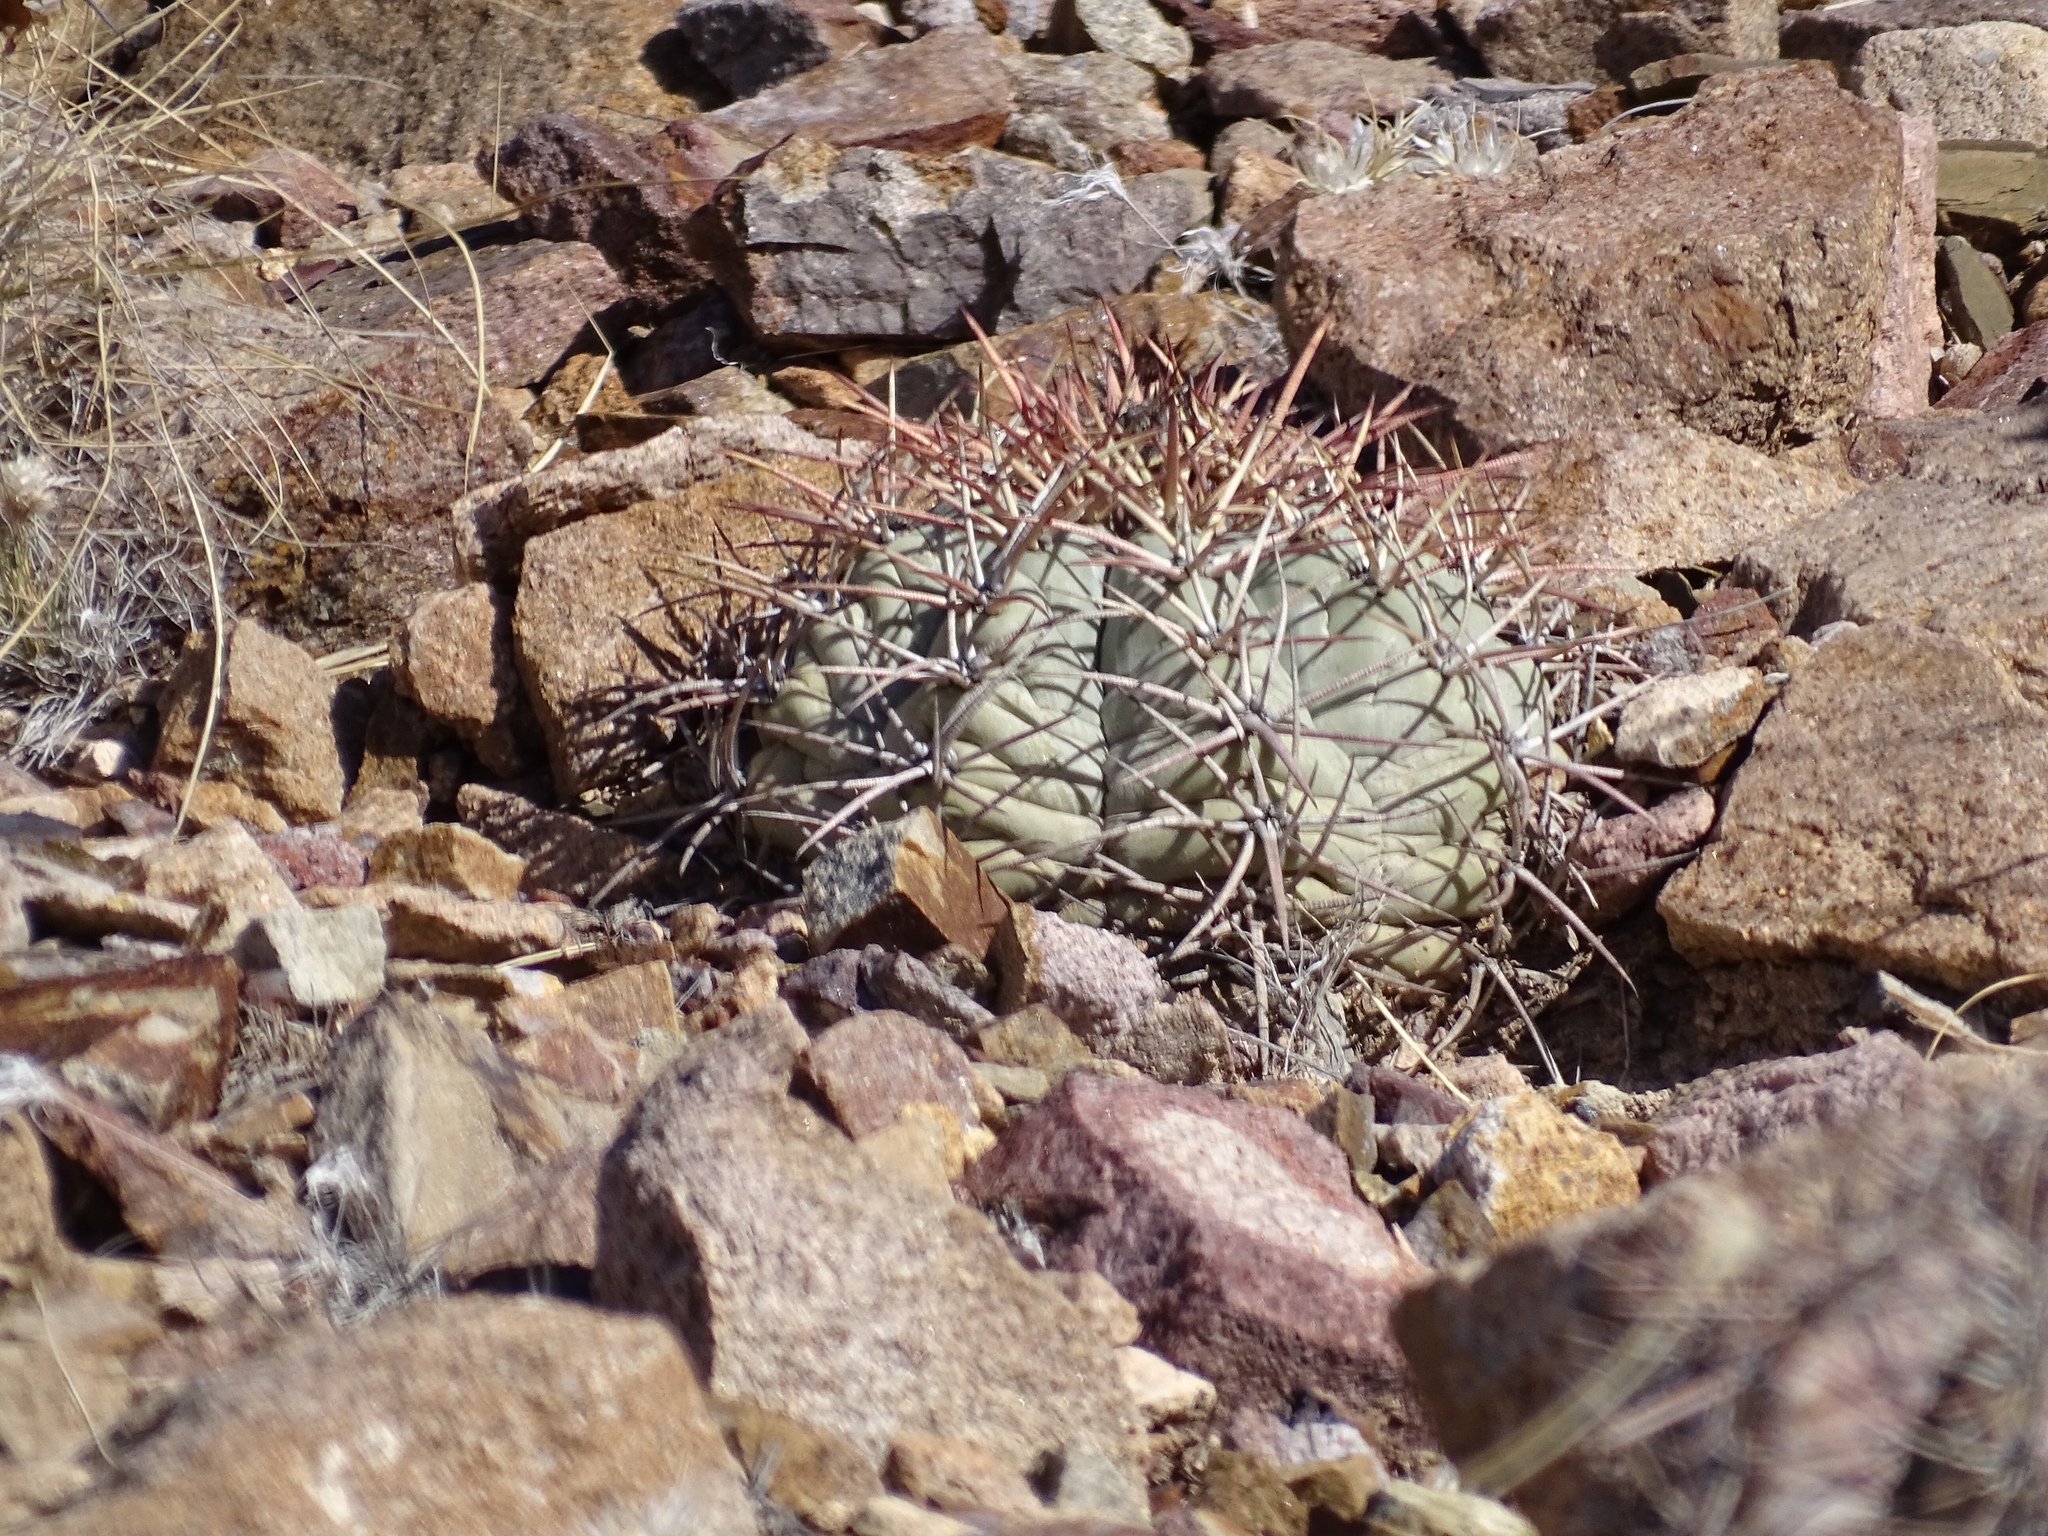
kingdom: Plantae
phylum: Tracheophyta
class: Magnoliopsida
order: Caryophyllales
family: Cactaceae
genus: Echinocactus
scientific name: Echinocactus horizonthalonius
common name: Devilshead
